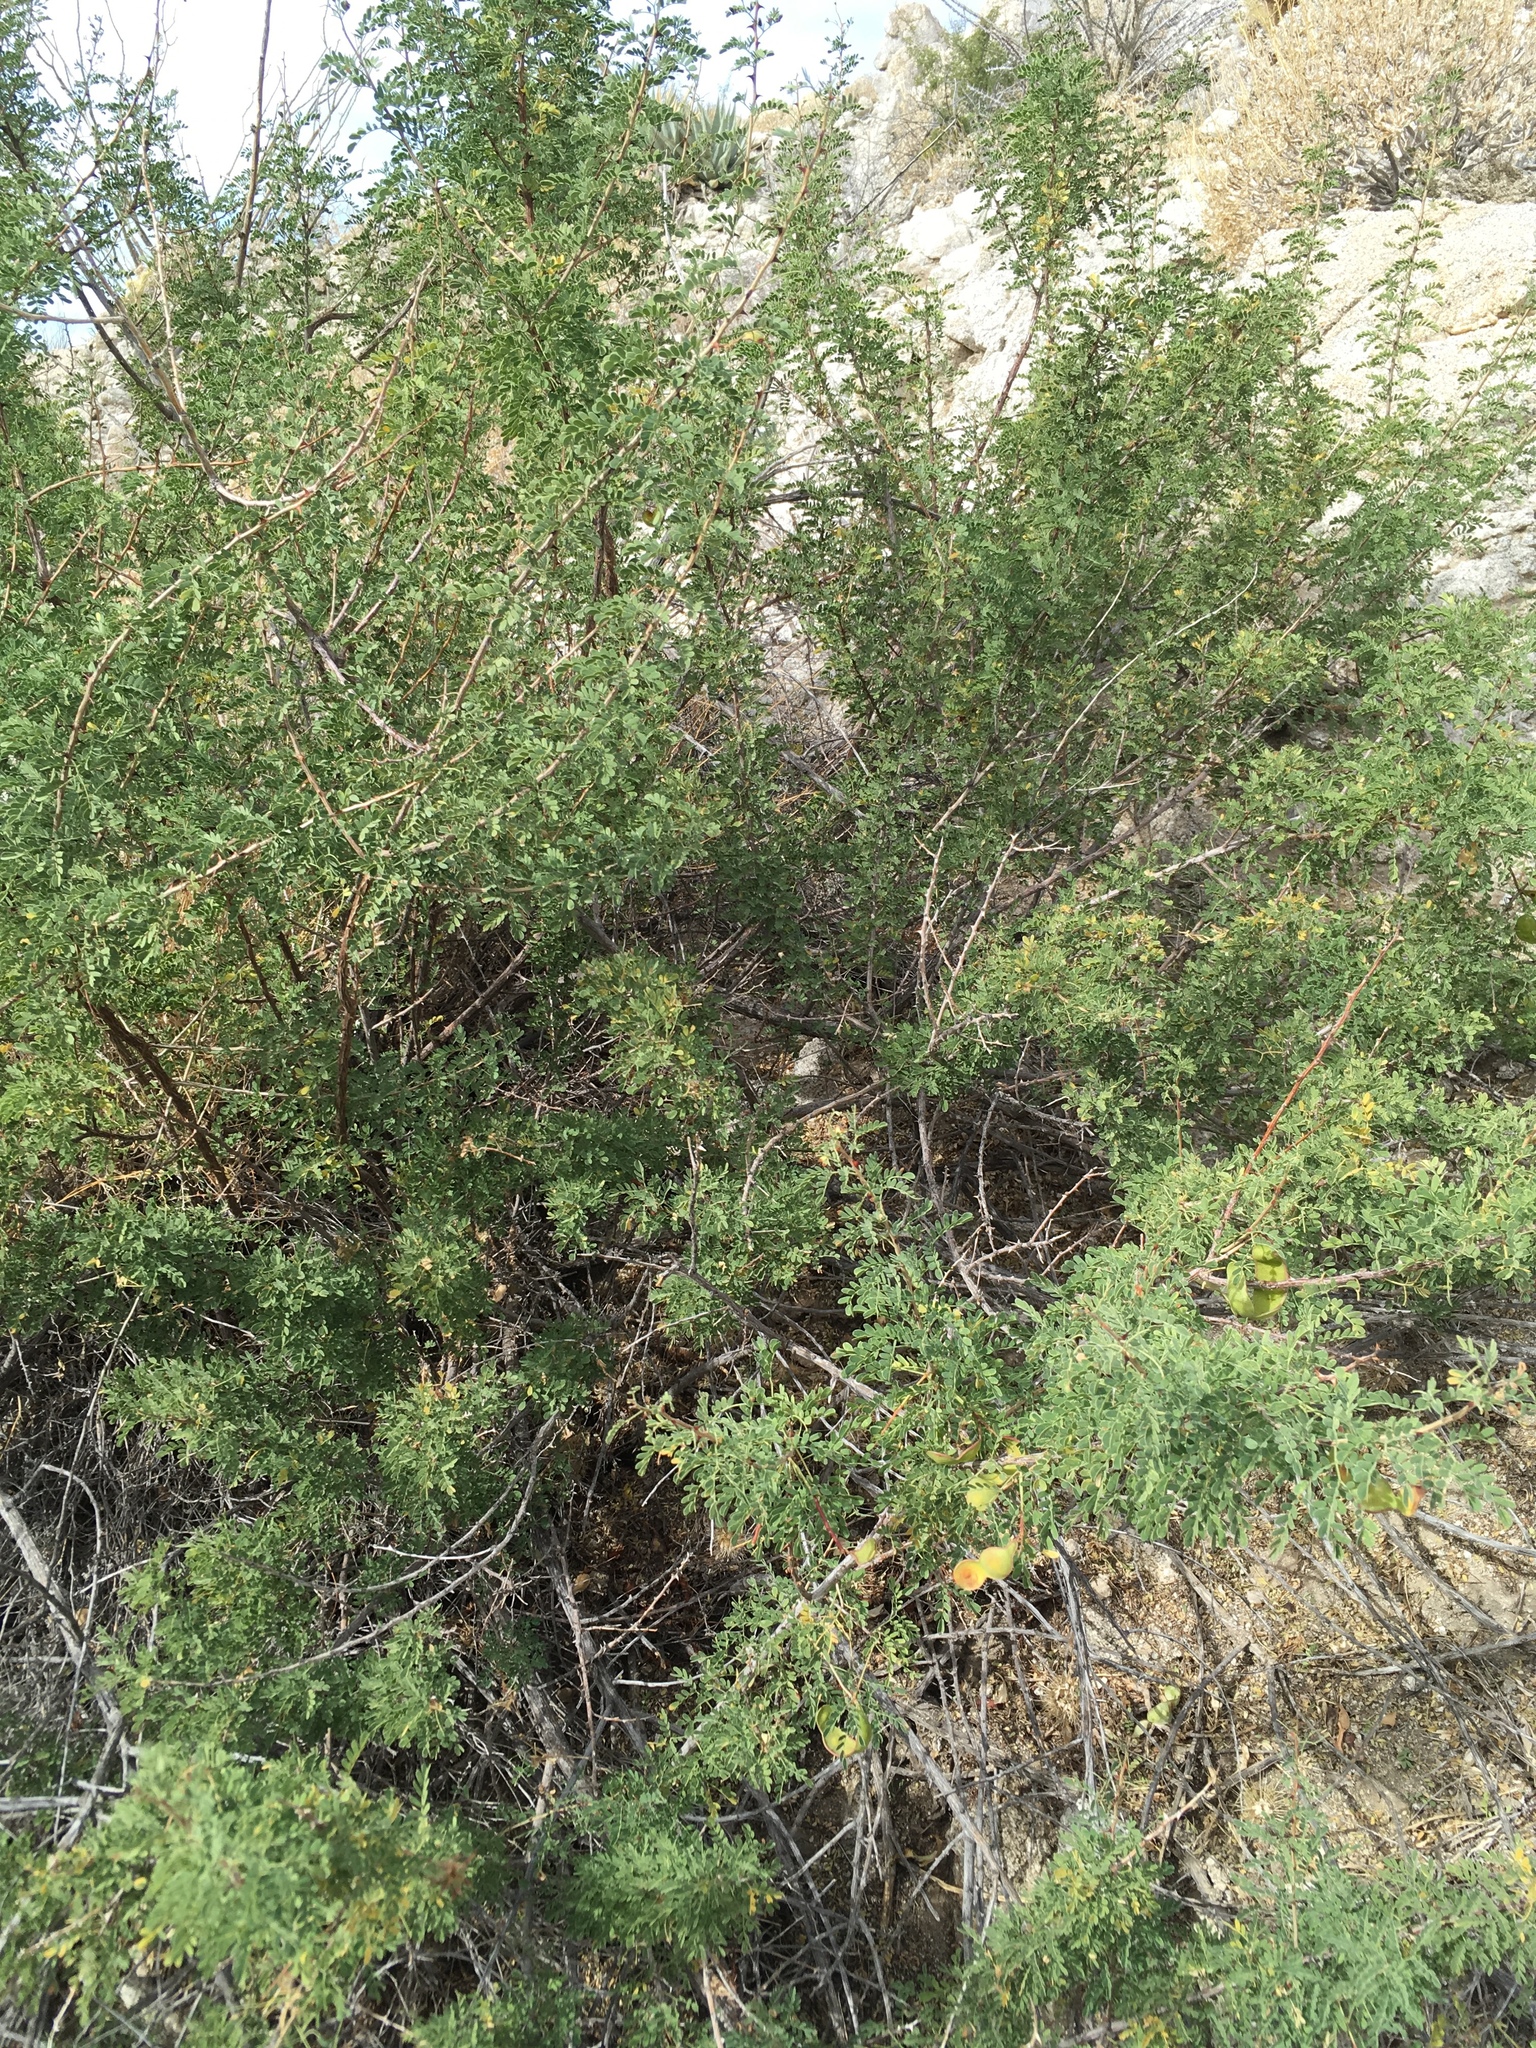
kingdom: Plantae
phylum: Tracheophyta
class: Magnoliopsida
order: Fabales
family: Fabaceae
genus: Senegalia
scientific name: Senegalia greggii
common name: Texas-mimosa
